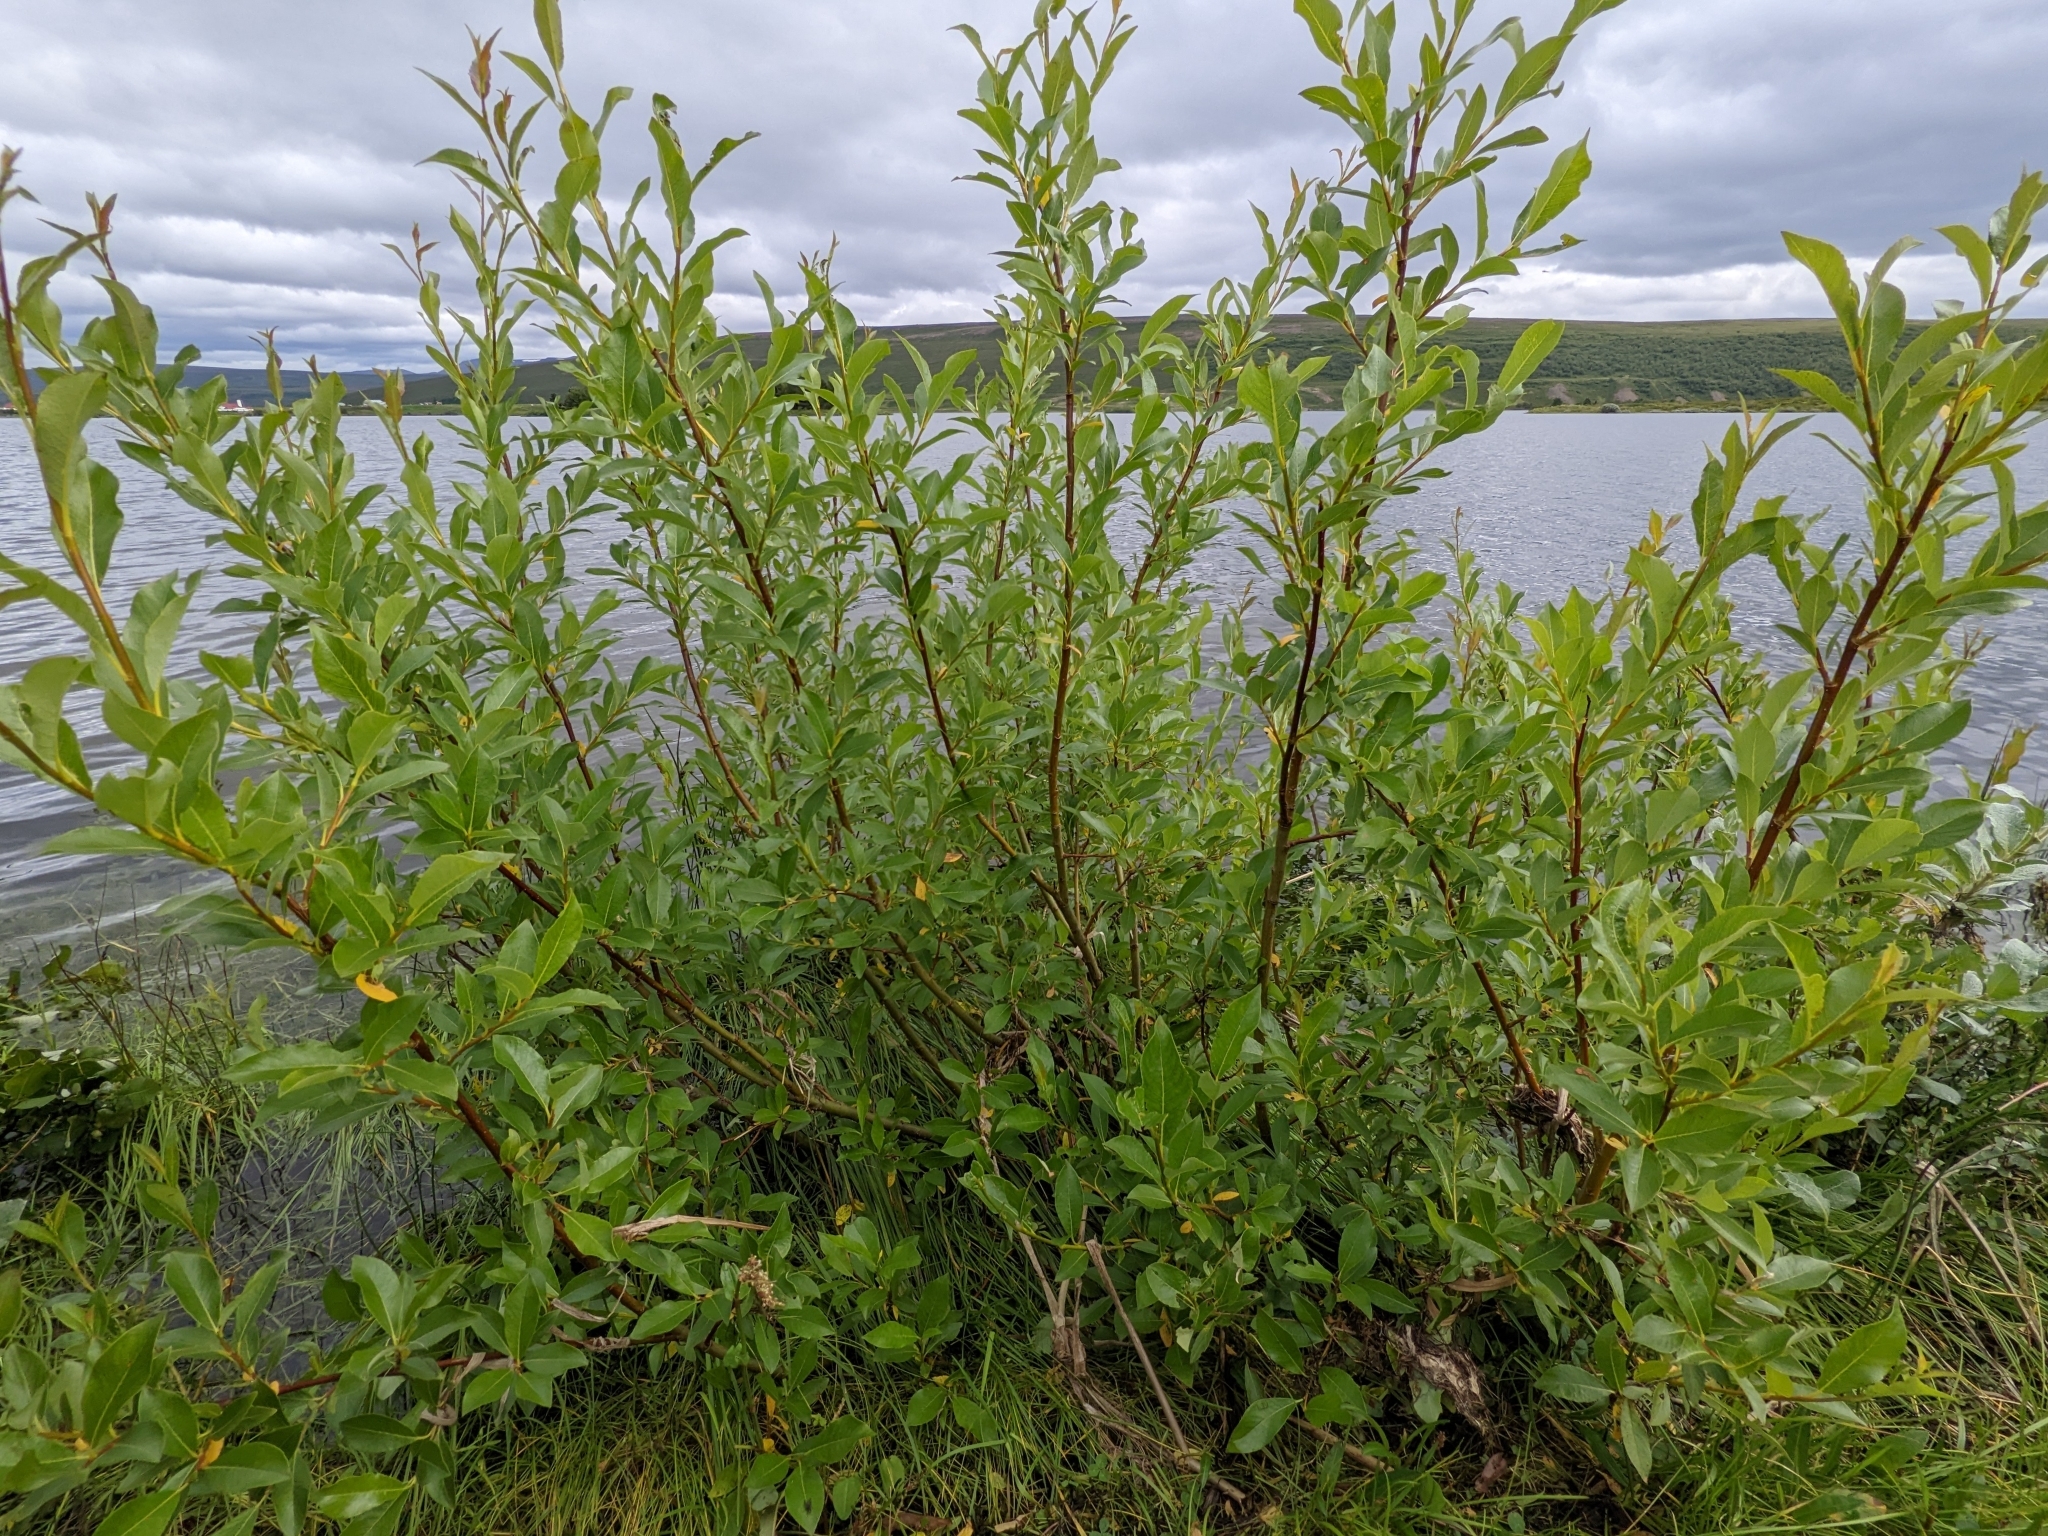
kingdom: Plantae
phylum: Tracheophyta
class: Magnoliopsida
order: Malpighiales
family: Salicaceae
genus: Salix
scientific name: Salix phylicifolia
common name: Tea-leaved willow
